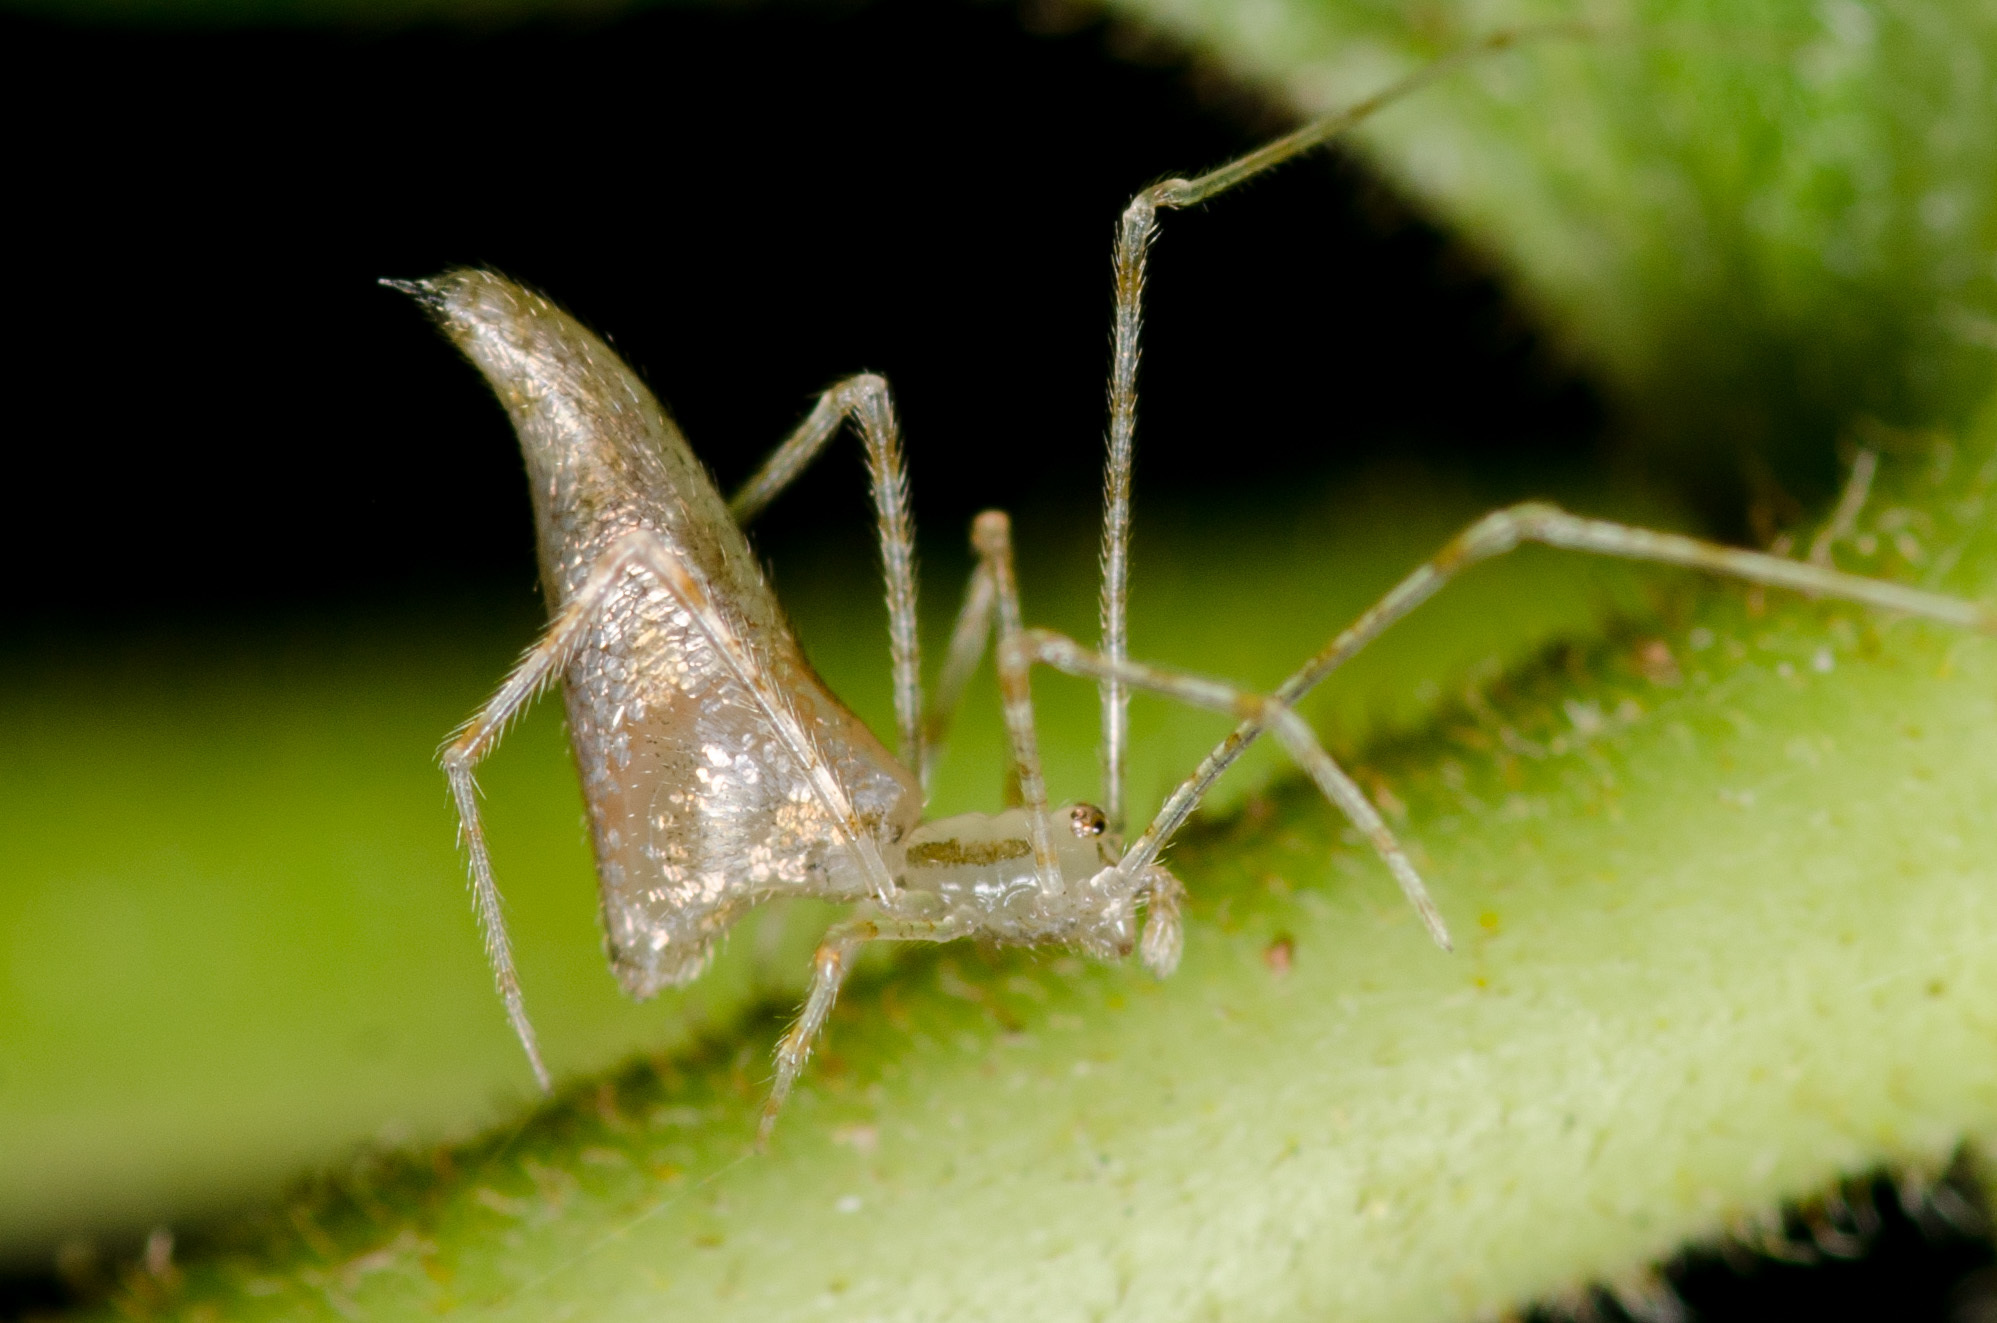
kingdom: Animalia
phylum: Arthropoda
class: Arachnida
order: Araneae
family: Theridiidae
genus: Rhomphaea
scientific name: Rhomphaea projiciens
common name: Cobweb spiders
